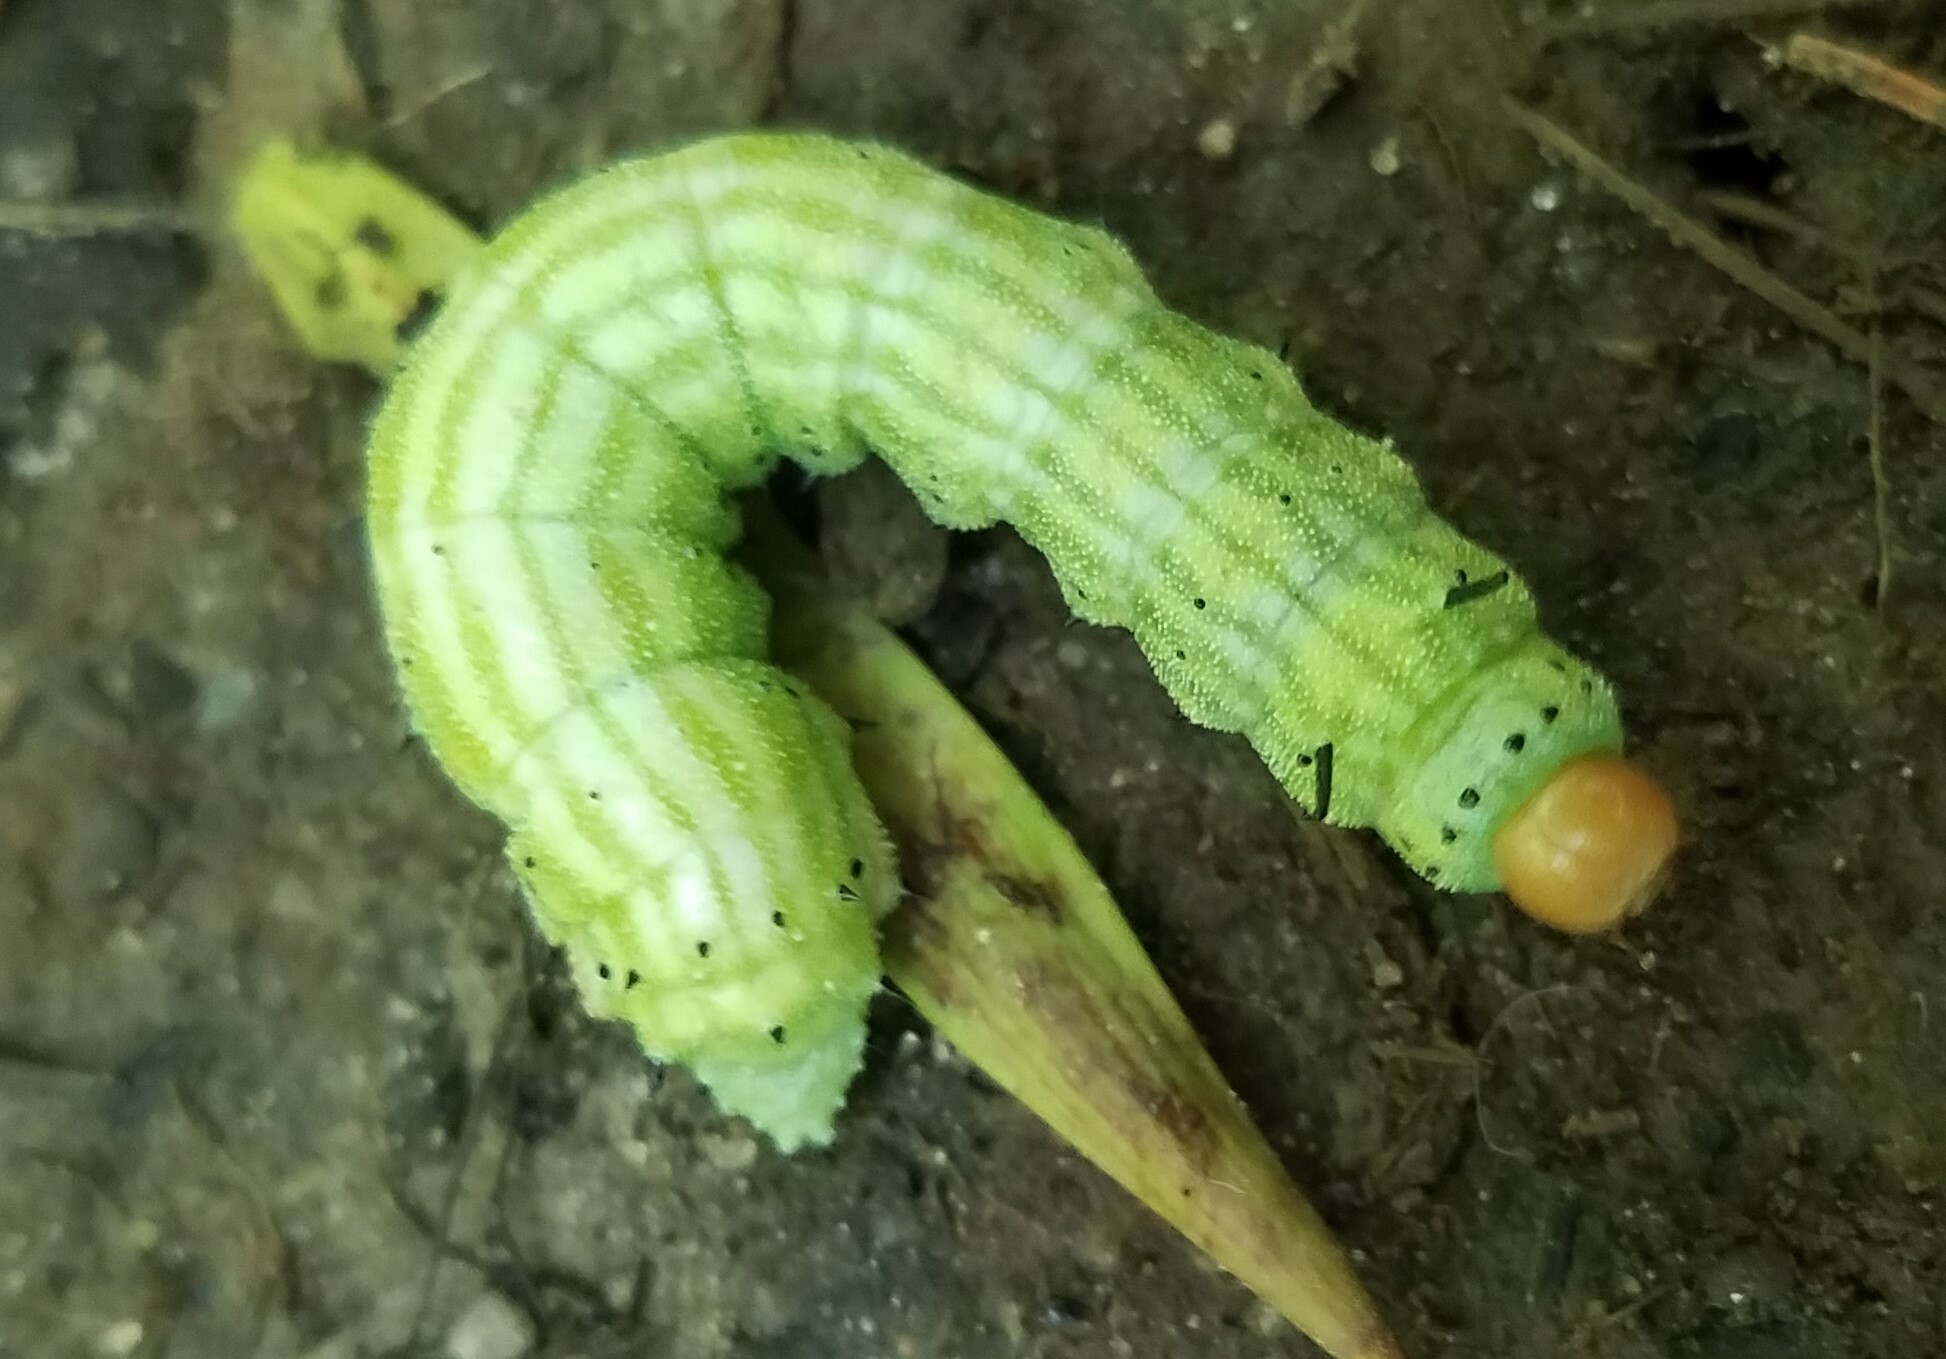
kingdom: Animalia
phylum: Arthropoda
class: Insecta
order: Lepidoptera
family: Saturniidae
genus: Dryocampa
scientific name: Dryocampa rubicunda
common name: Rosy maple moth
